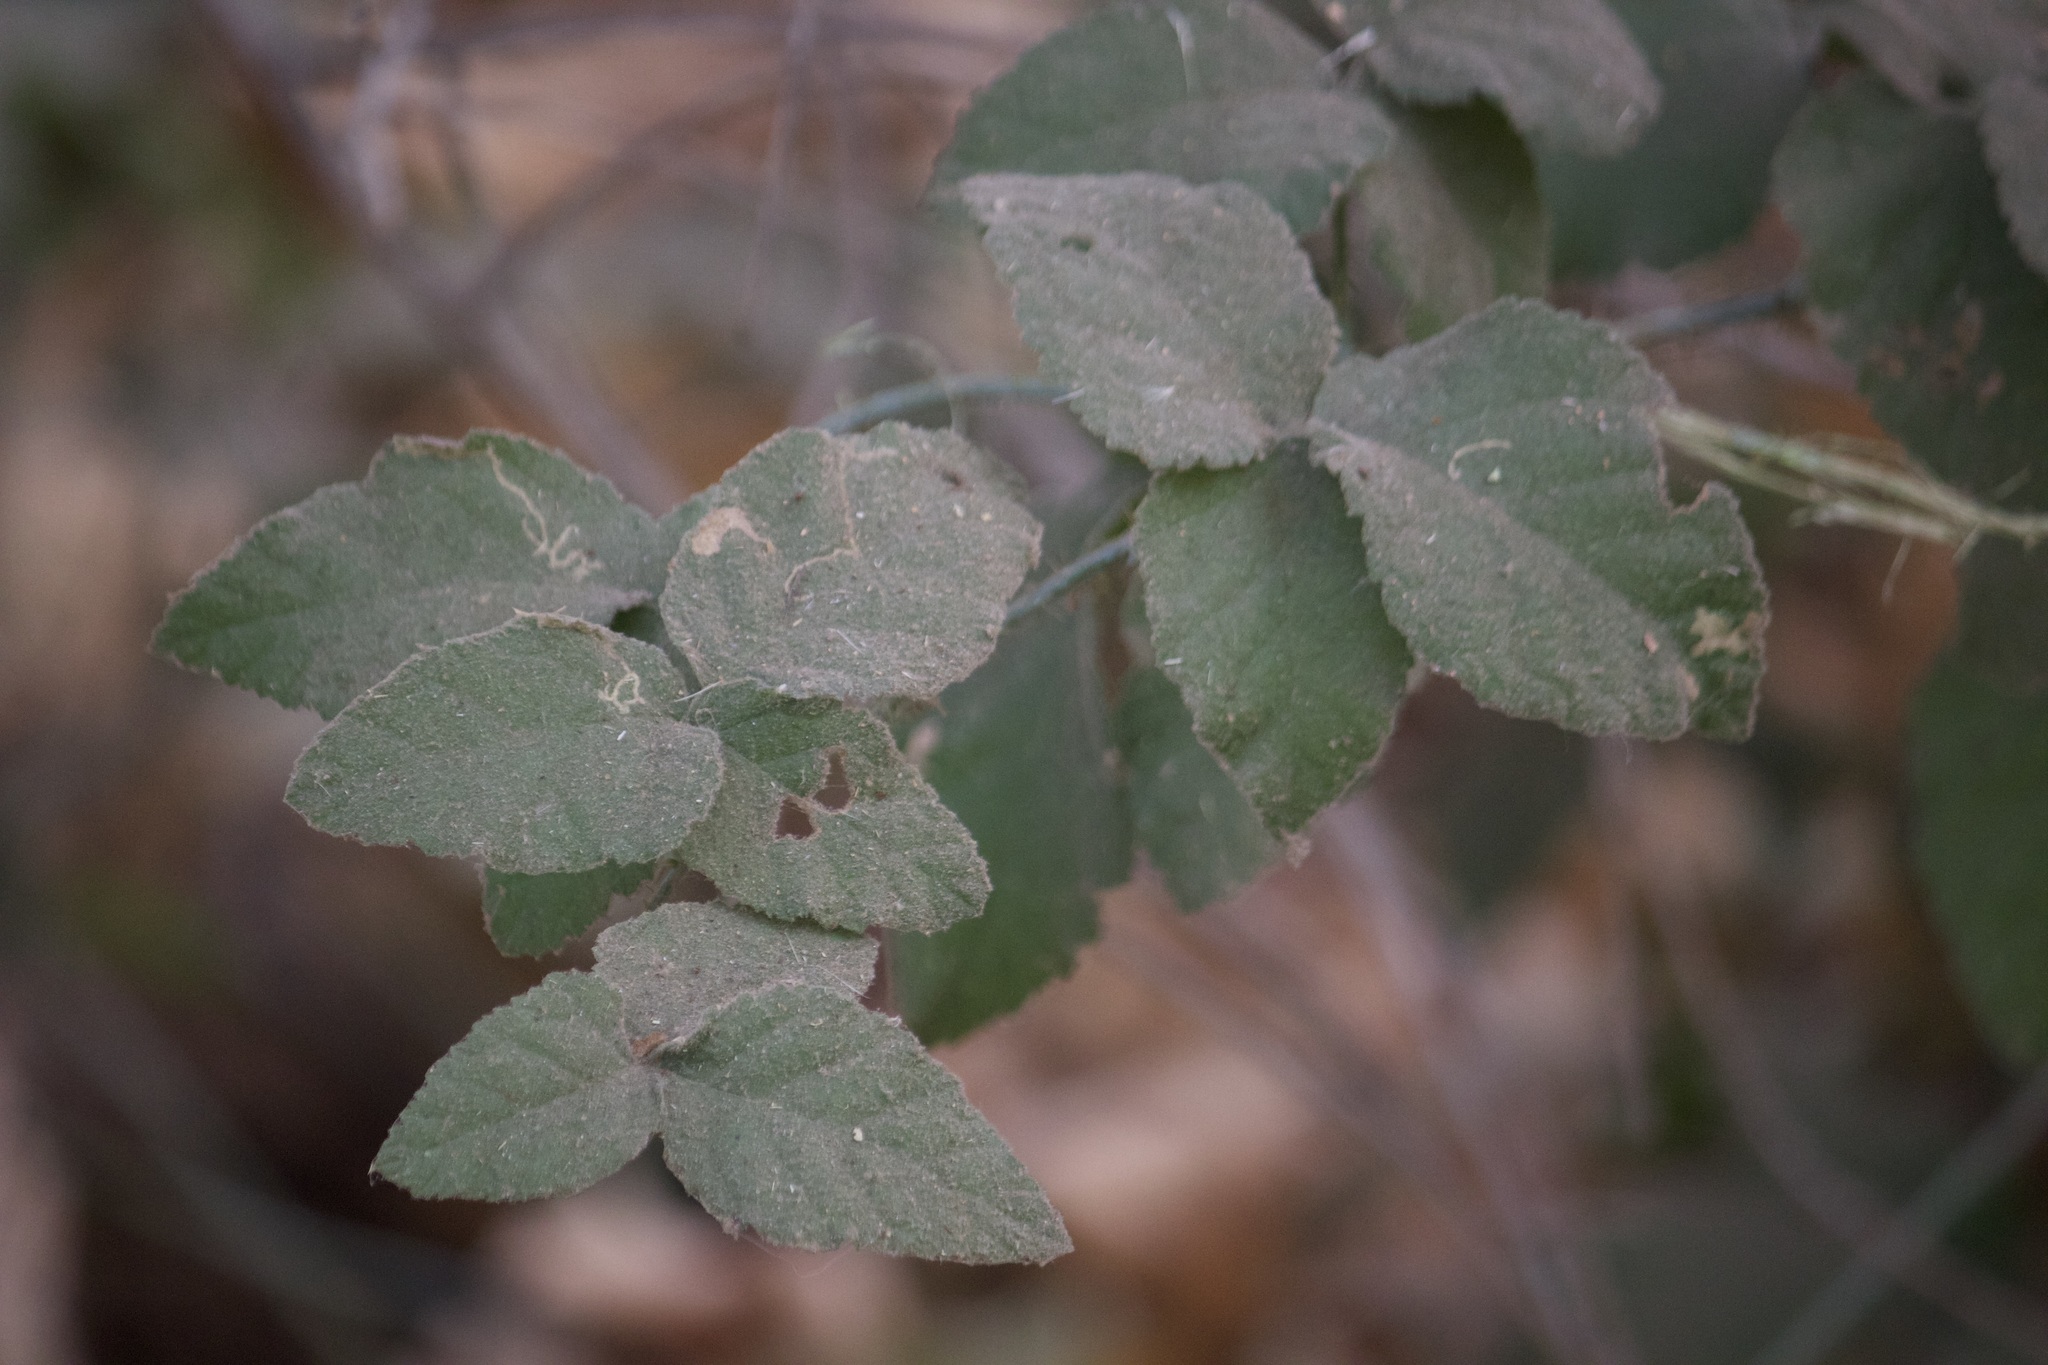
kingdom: Plantae
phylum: Tracheophyta
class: Magnoliopsida
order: Rosales
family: Rosaceae
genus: Rubus
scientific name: Rubus ursinus
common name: Pacific blackberry
